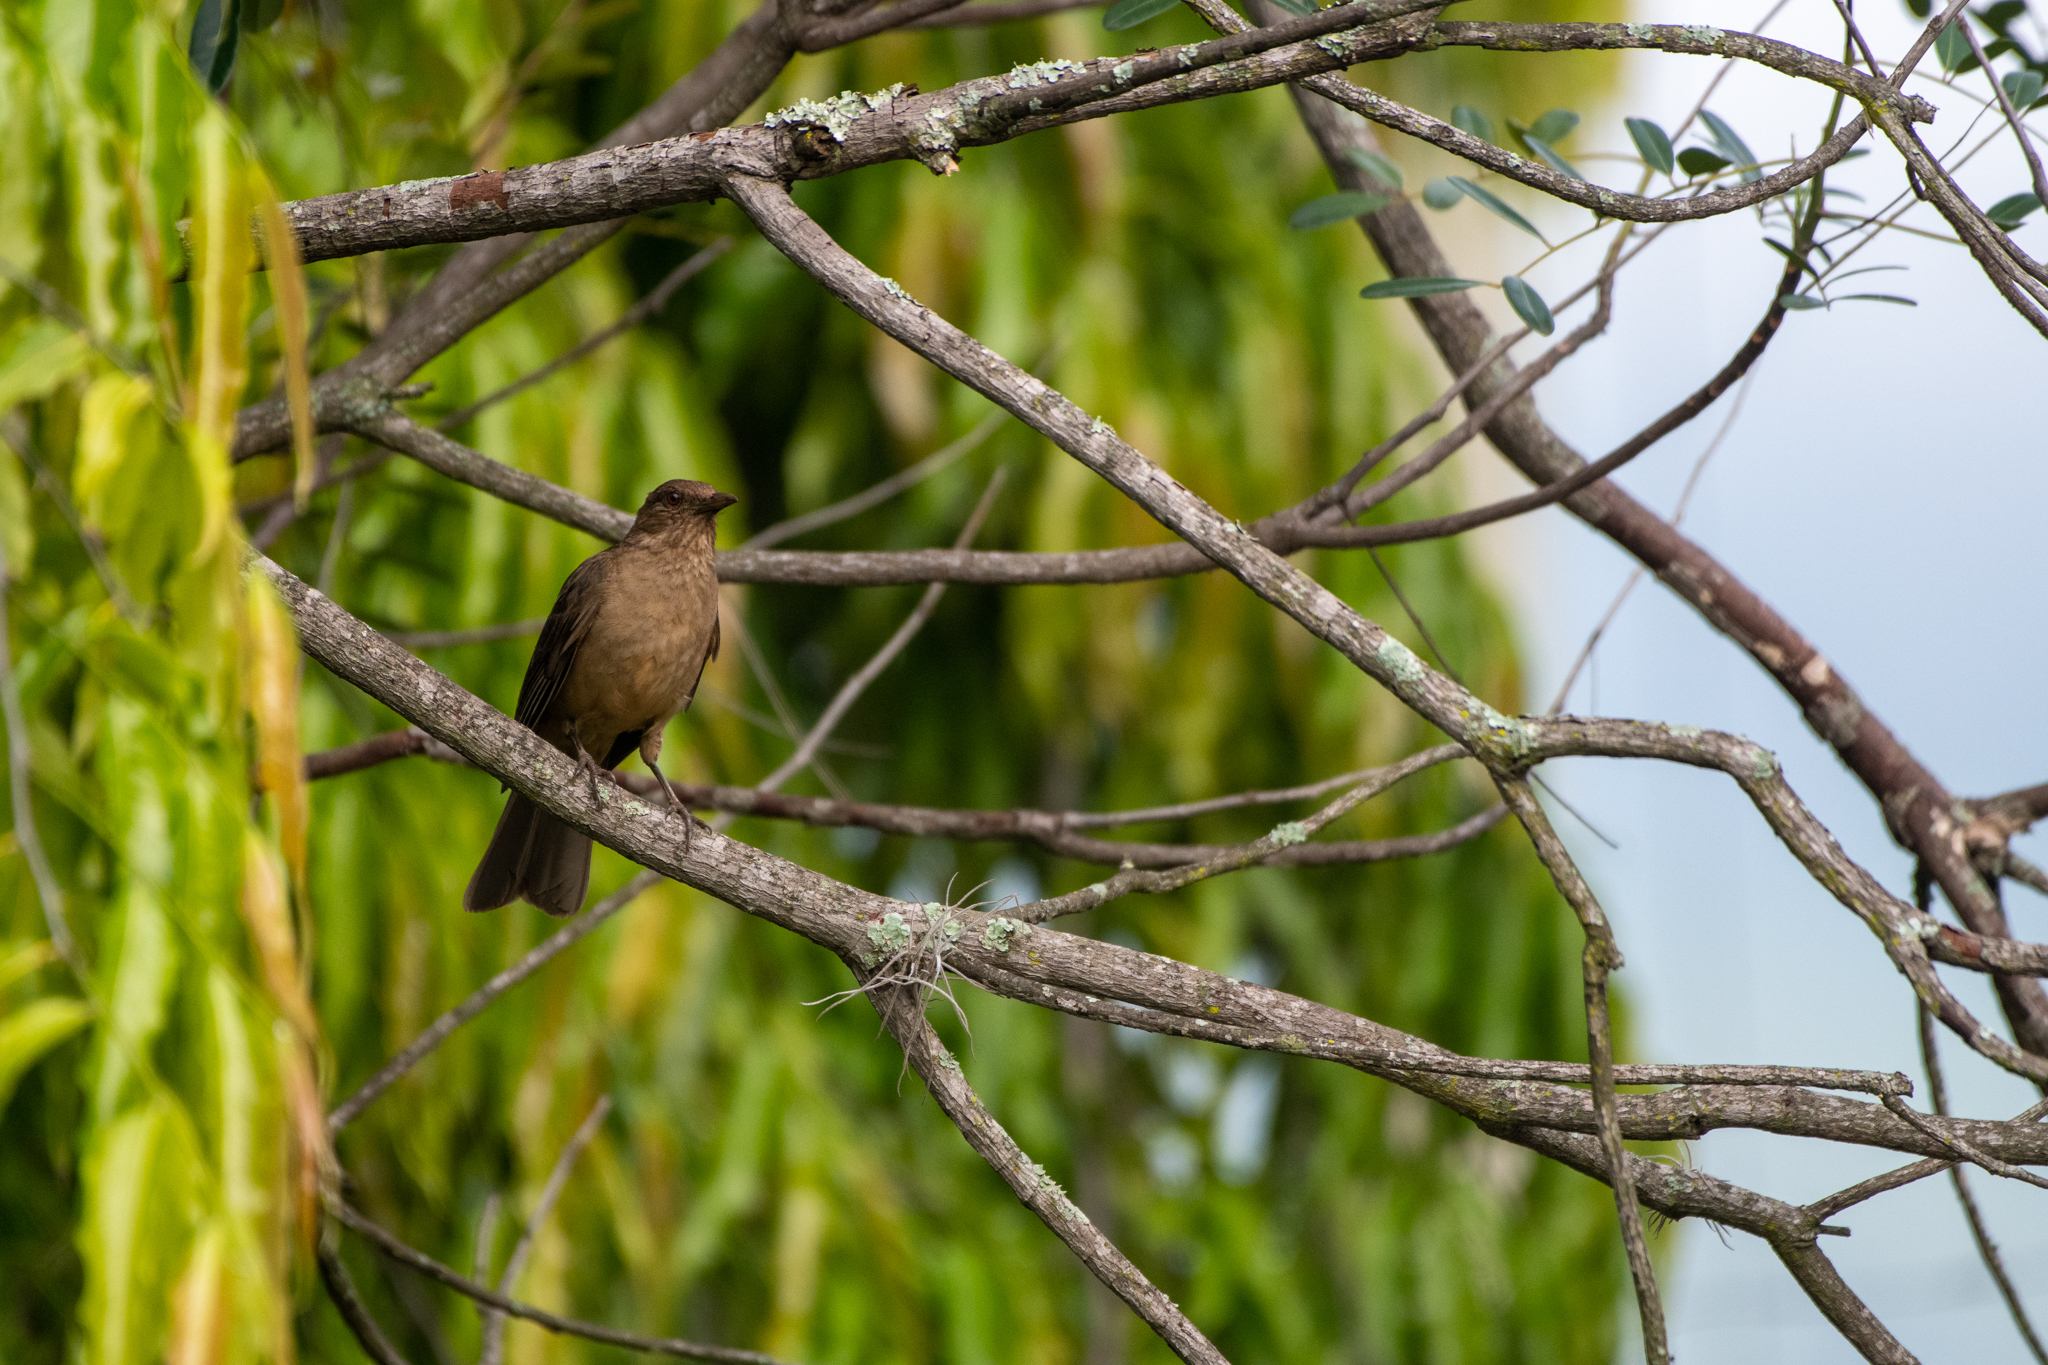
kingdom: Animalia
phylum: Chordata
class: Aves
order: Passeriformes
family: Turdidae
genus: Turdus
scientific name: Turdus grayi
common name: Clay-colored thrush
